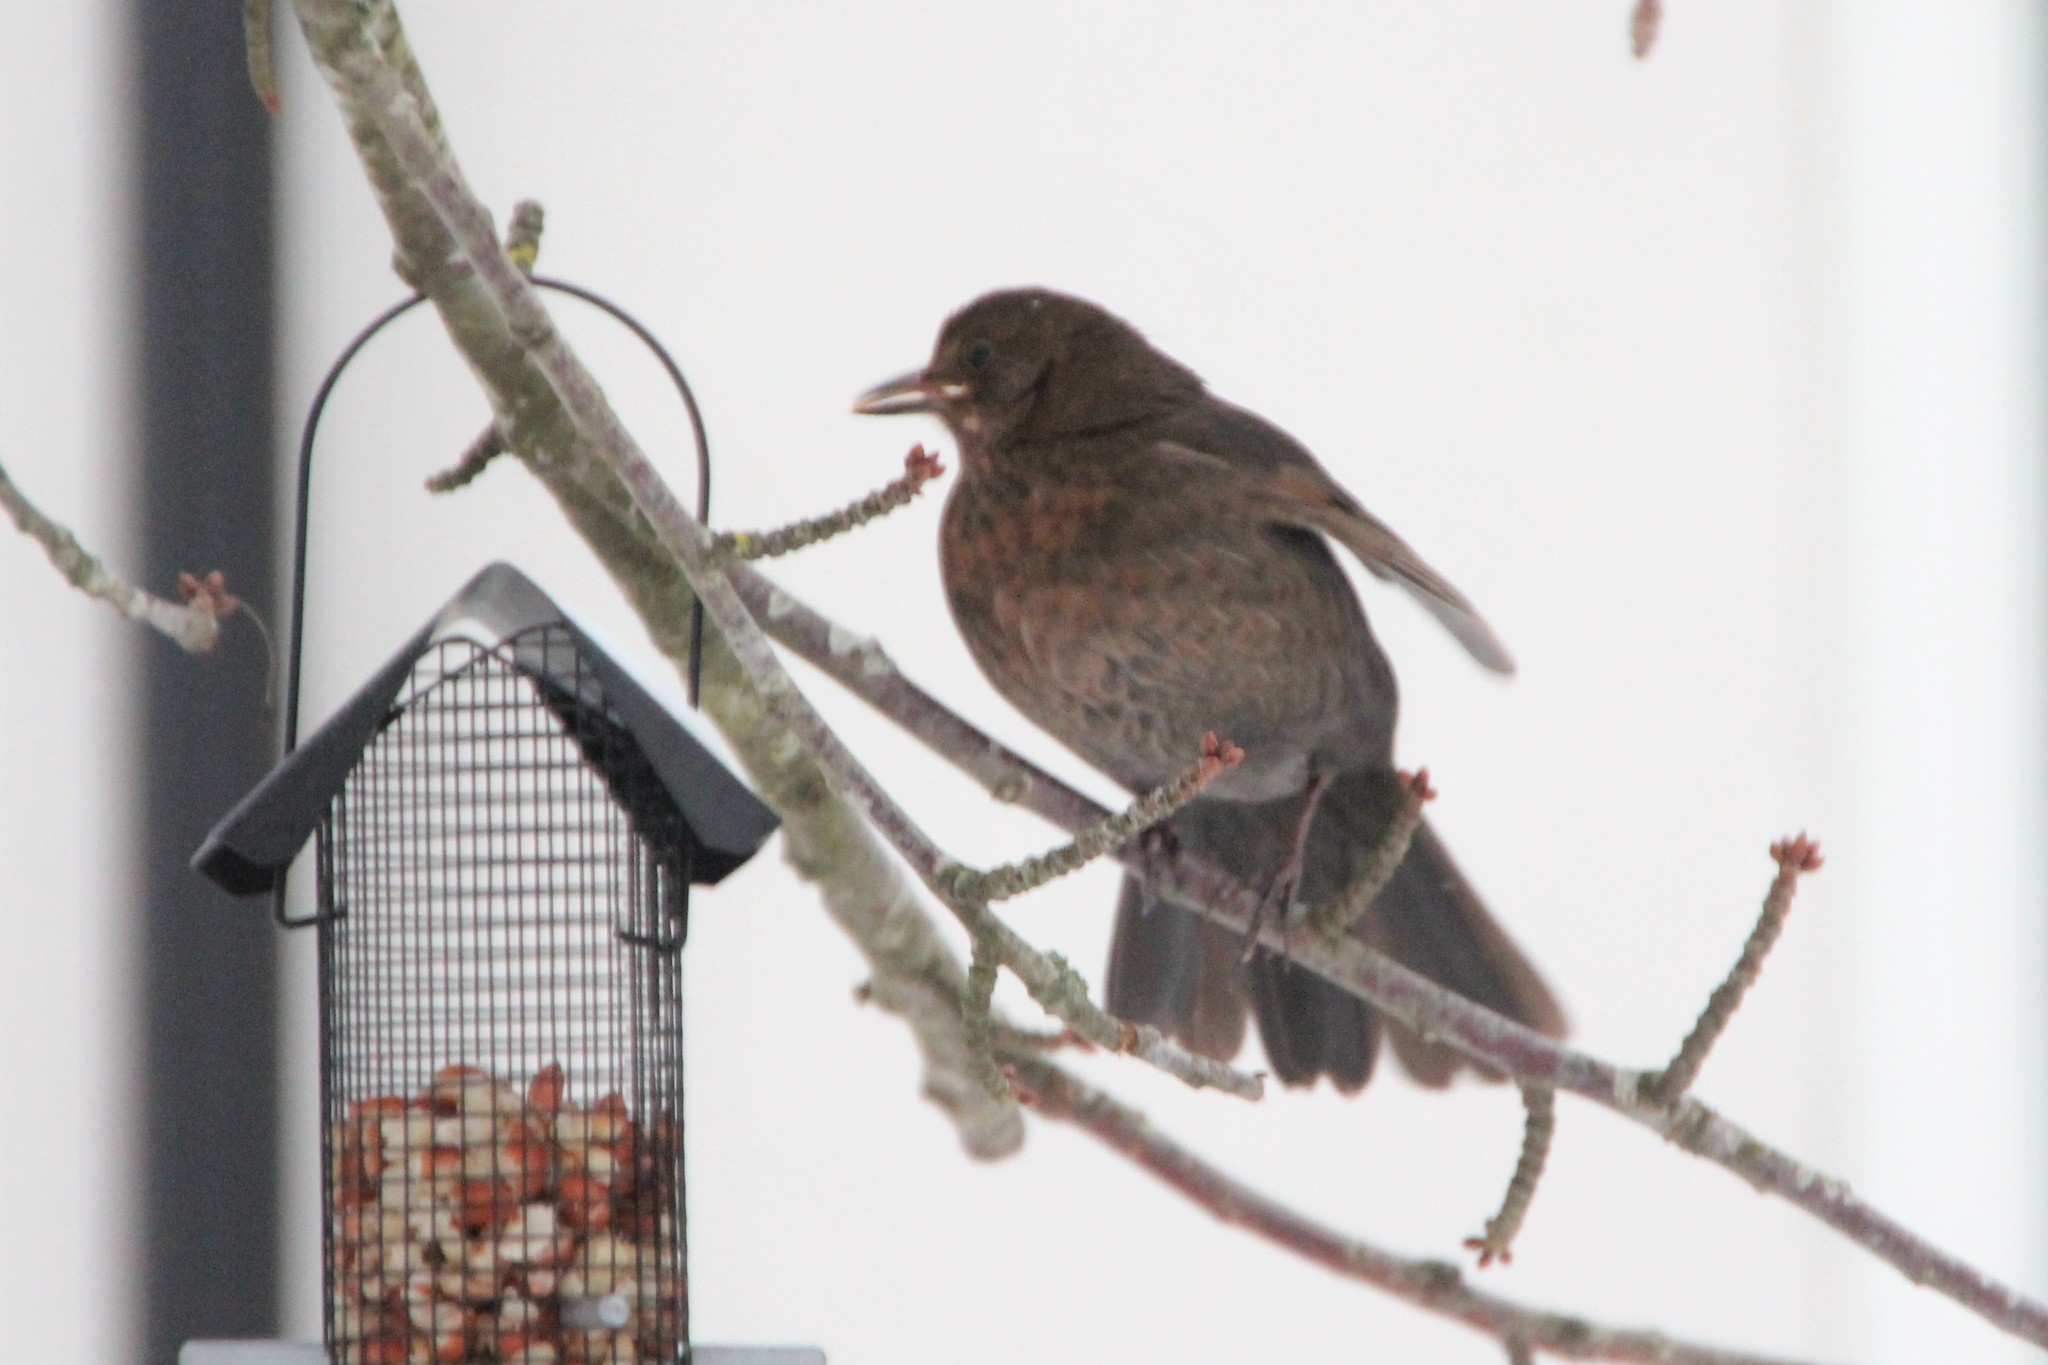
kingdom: Animalia
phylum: Chordata
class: Aves
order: Passeriformes
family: Turdidae
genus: Turdus
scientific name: Turdus merula
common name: Common blackbird
